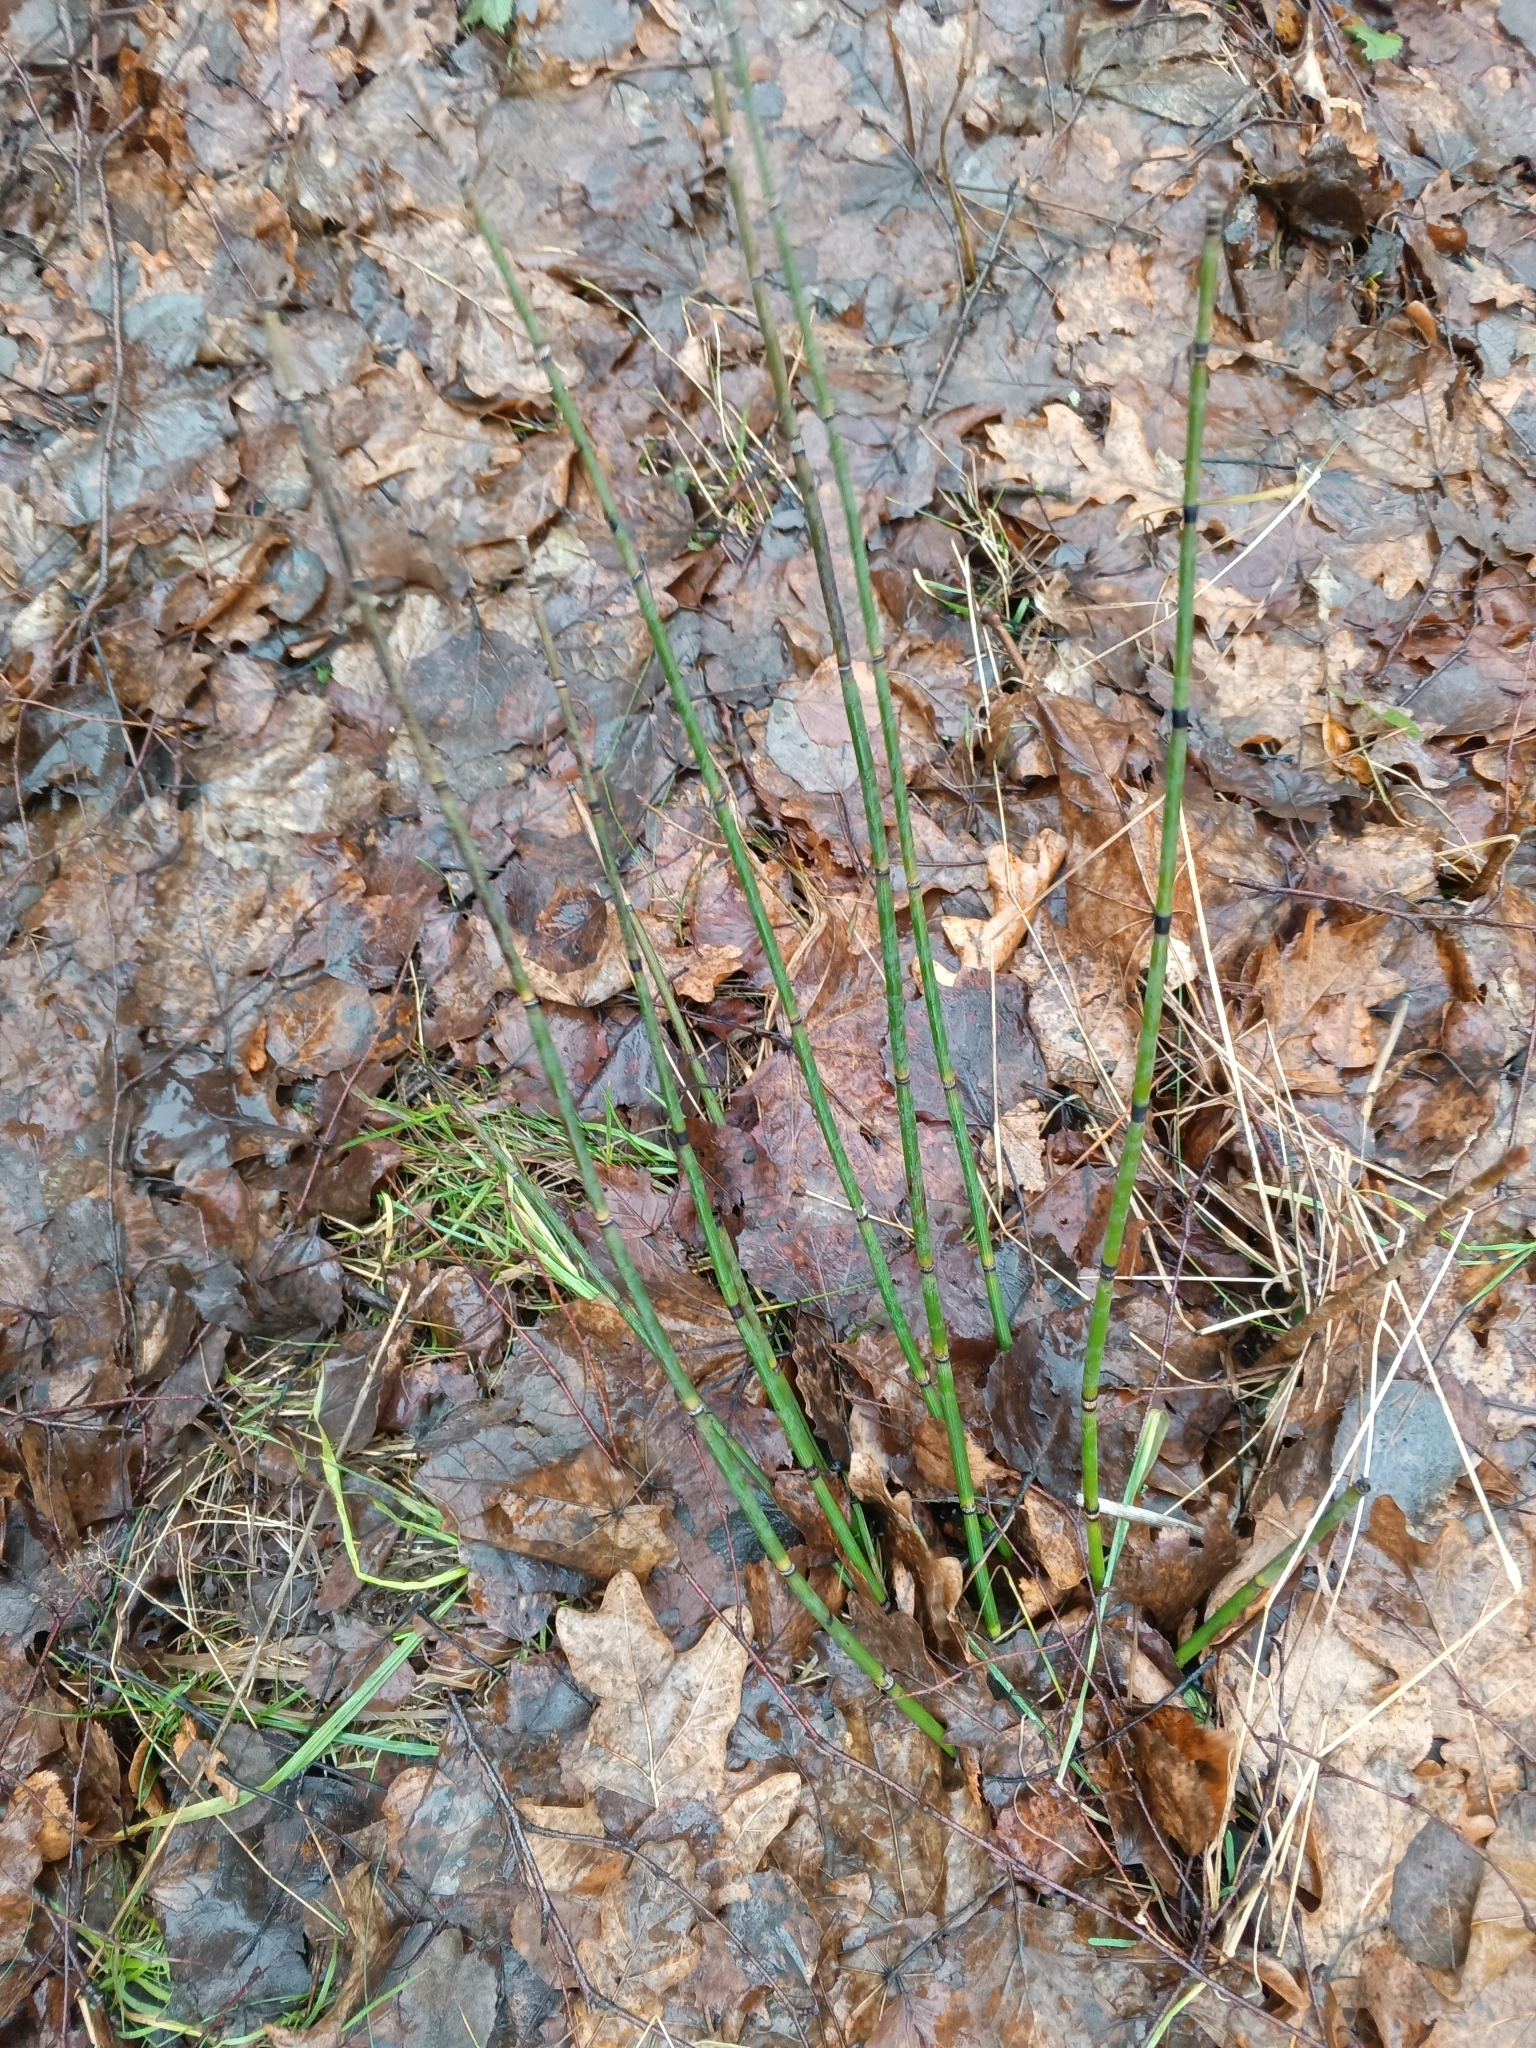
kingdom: Plantae
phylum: Tracheophyta
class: Polypodiopsida
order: Equisetales
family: Equisetaceae
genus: Equisetum
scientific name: Equisetum hyemale
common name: Rough horsetail
